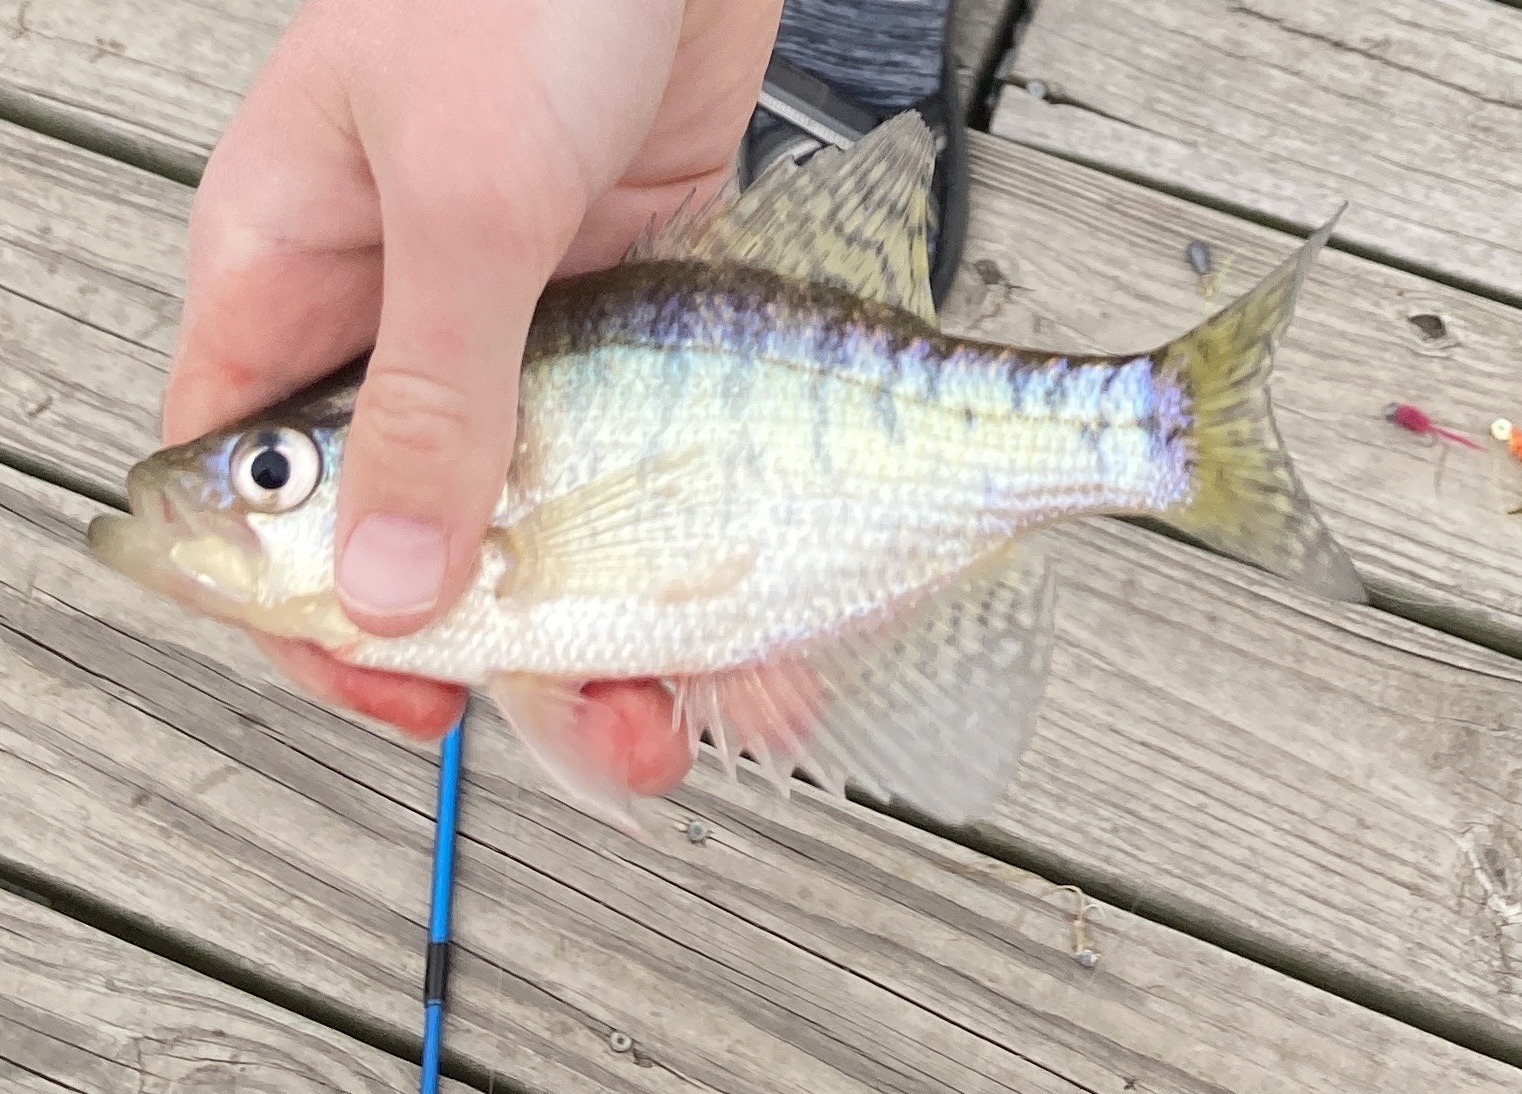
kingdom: Animalia
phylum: Chordata
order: Perciformes
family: Centrarchidae
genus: Pomoxis
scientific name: Pomoxis annularis
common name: White crappie
